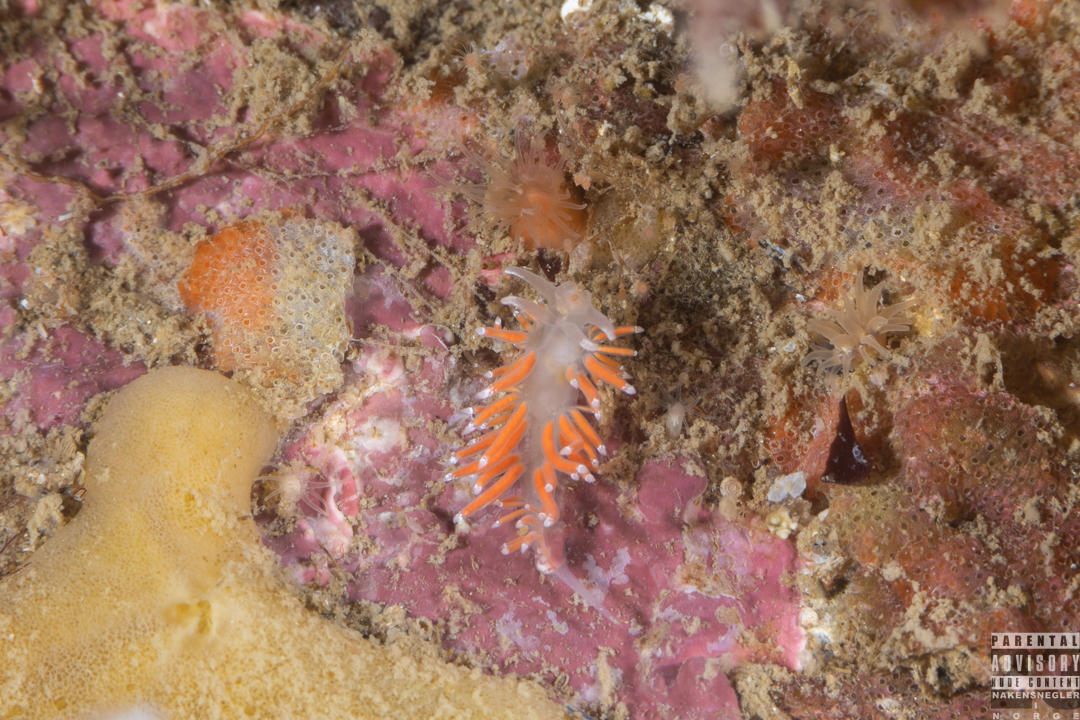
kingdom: Animalia
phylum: Mollusca
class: Gastropoda
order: Nudibranchia
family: Coryphellidae
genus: Coryphella
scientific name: Coryphella gracilis
